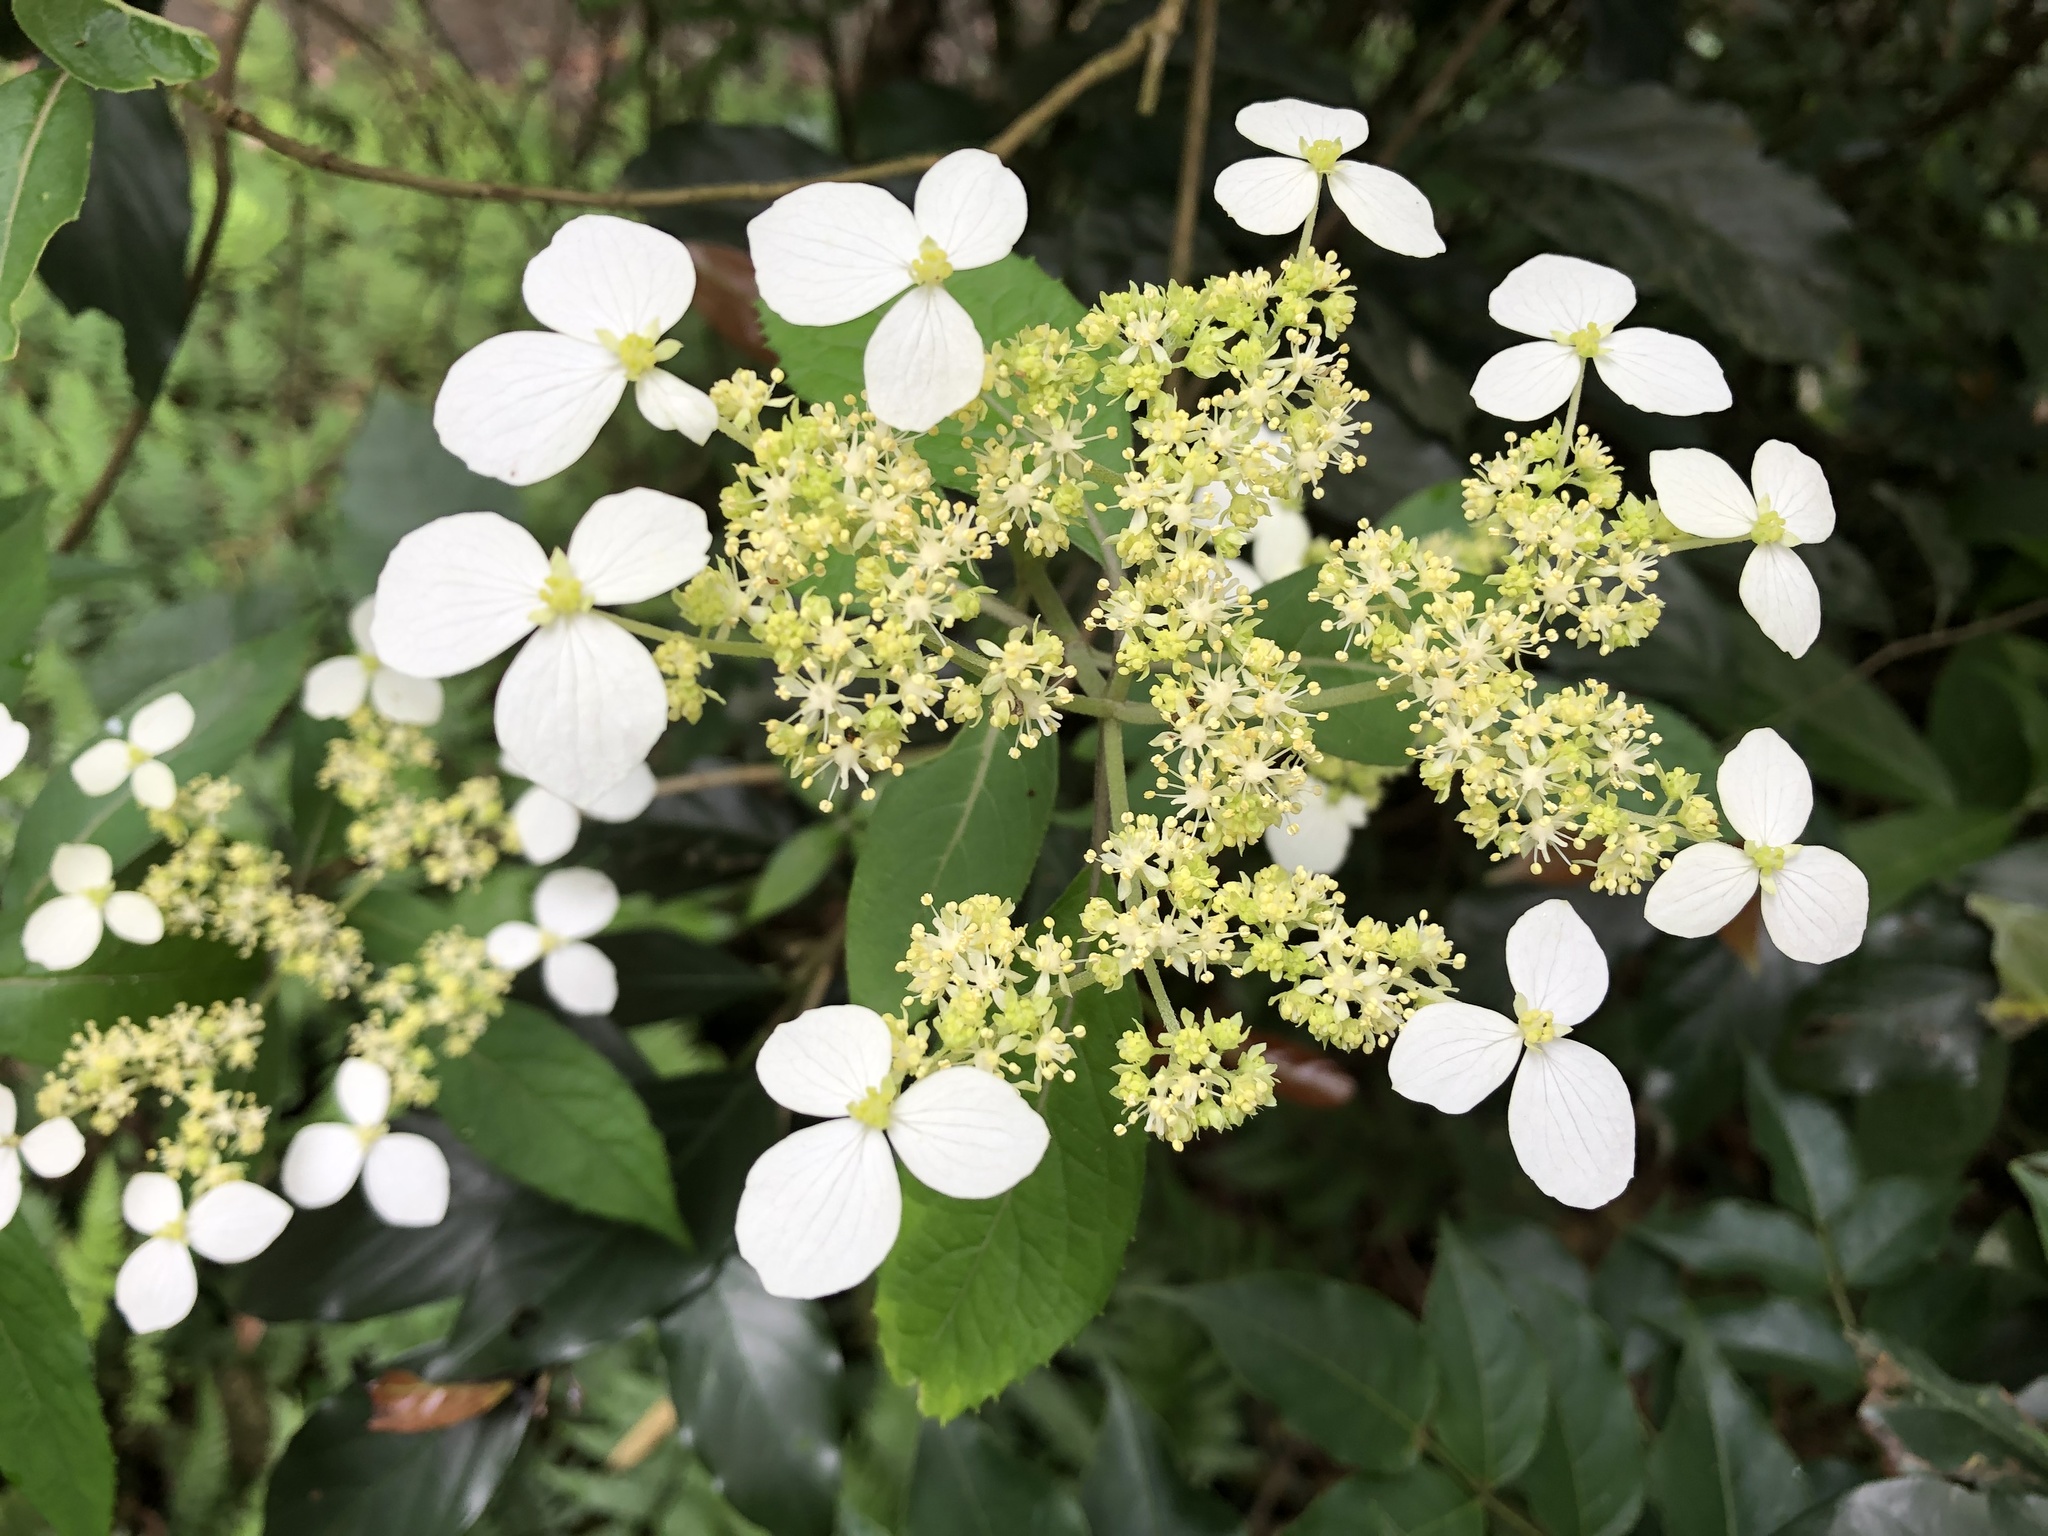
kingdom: Plantae
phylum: Tracheophyta
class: Magnoliopsida
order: Cornales
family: Hydrangeaceae
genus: Hydrangea
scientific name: Hydrangea chinensis
